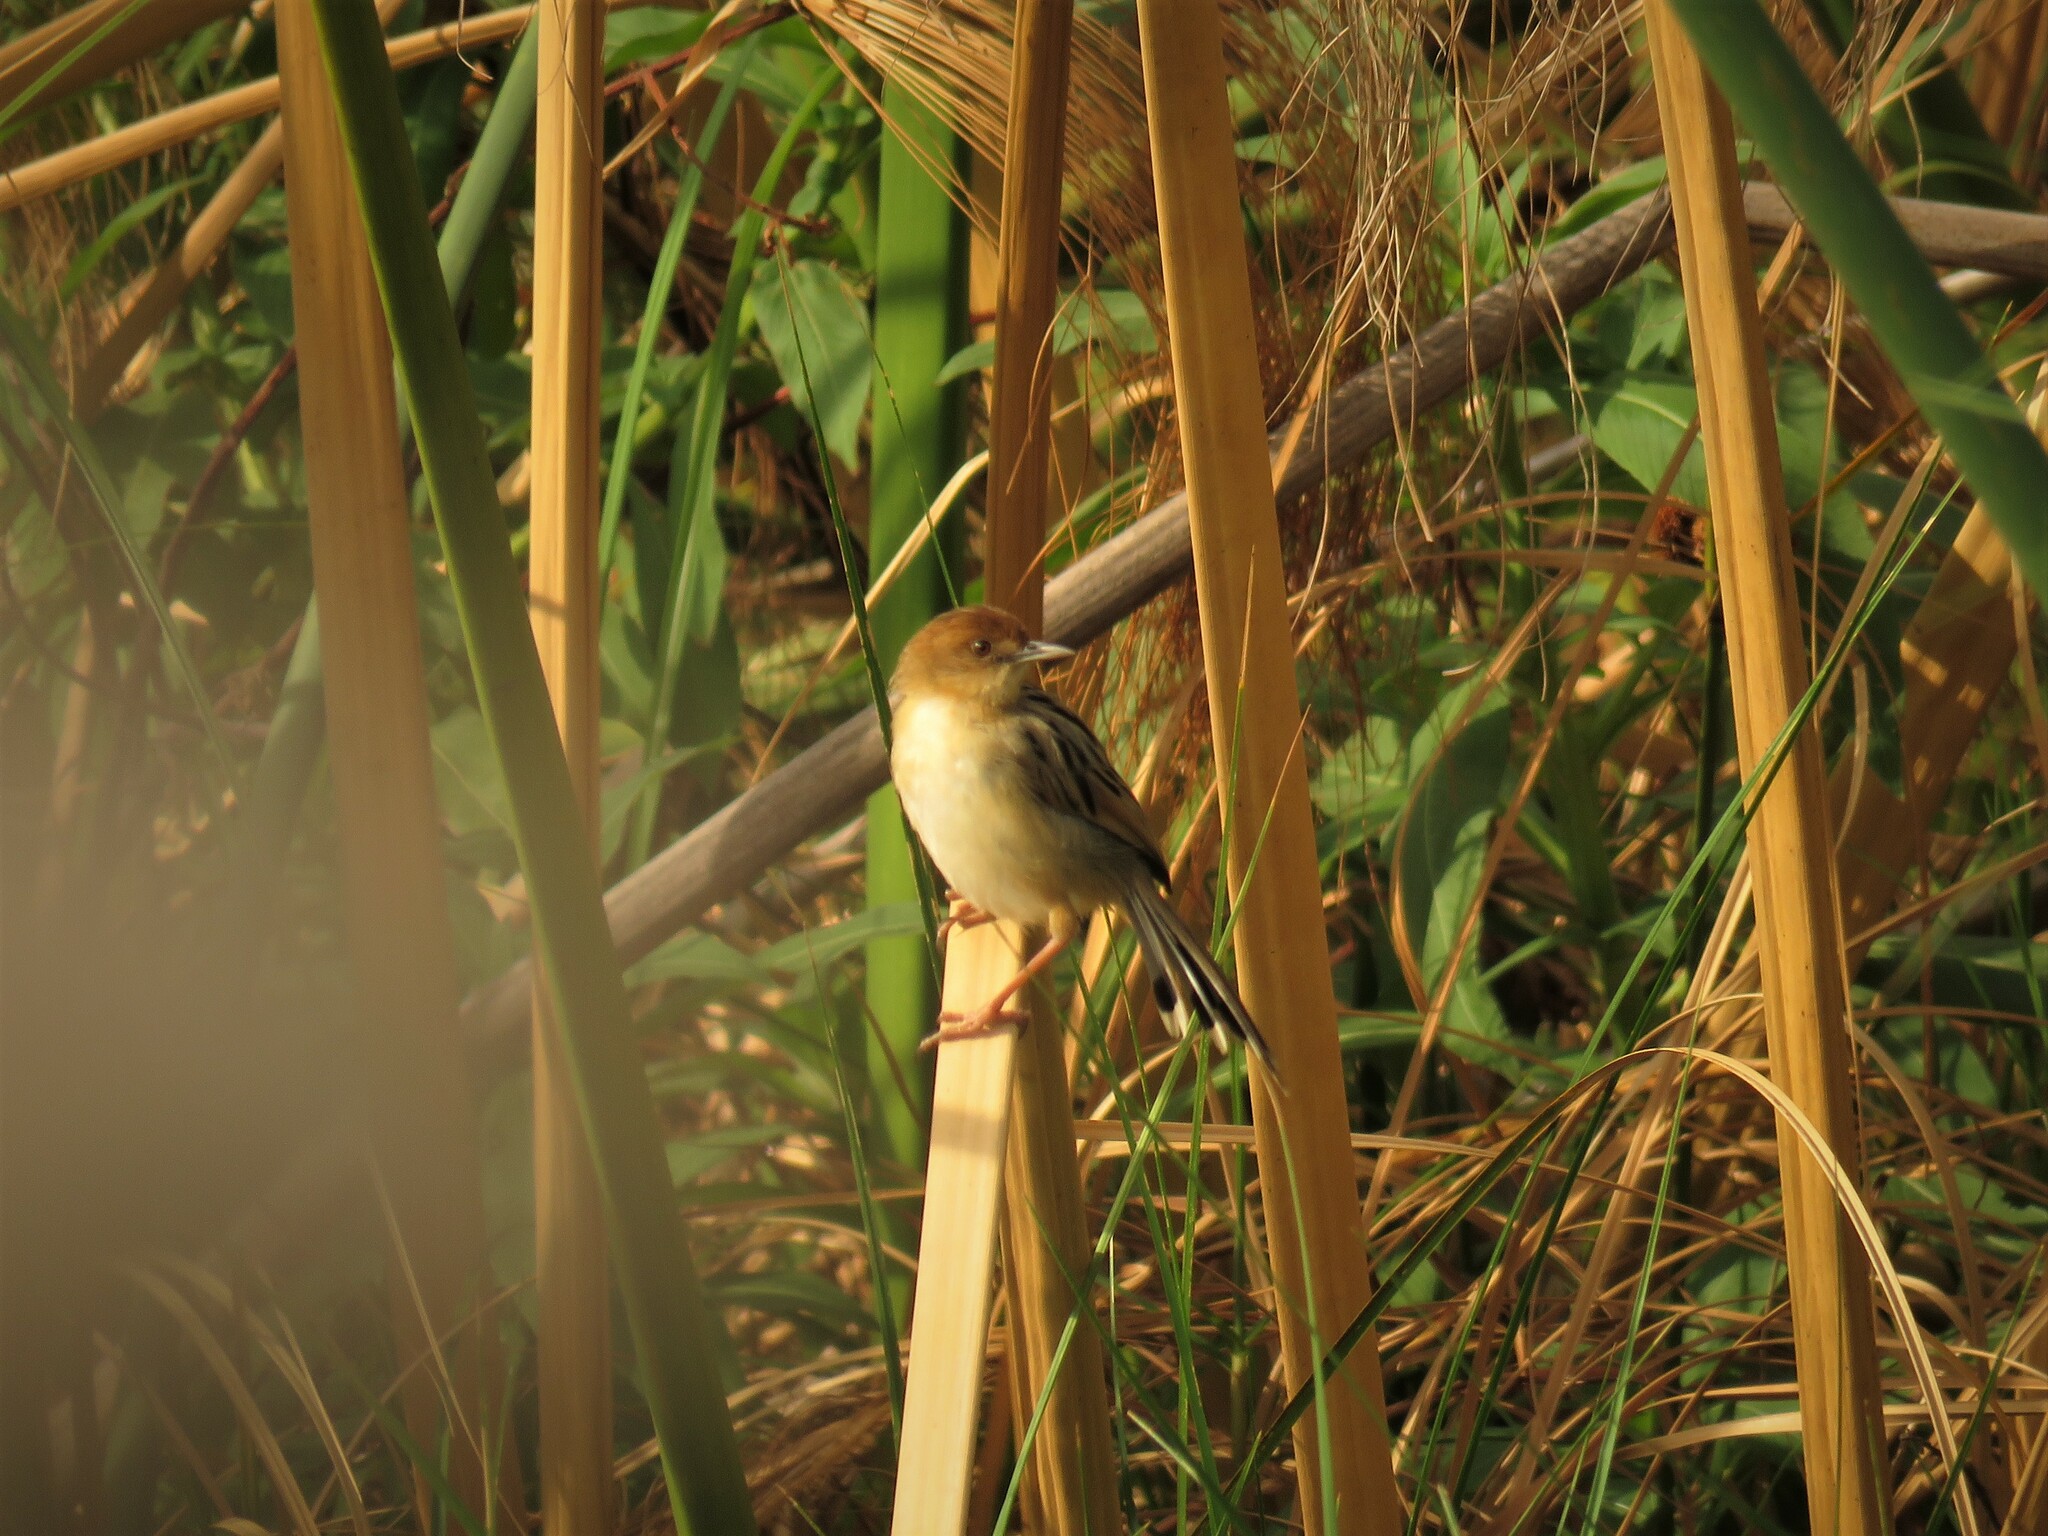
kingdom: Animalia
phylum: Chordata
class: Aves
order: Passeriformes
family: Cisticolidae
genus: Cisticola
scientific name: Cisticola pipiens
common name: Chirping cisticola
